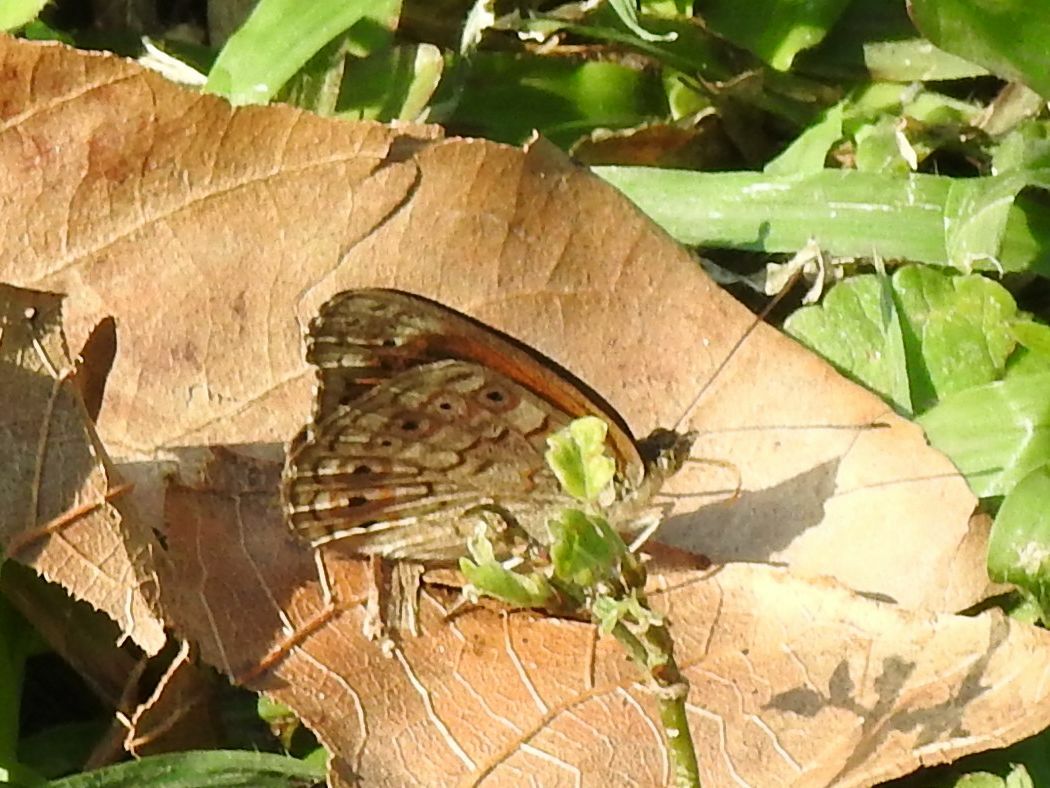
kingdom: Animalia
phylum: Arthropoda
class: Insecta
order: Lepidoptera
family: Nymphalidae
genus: Asterope
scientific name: Asterope boisduvali
